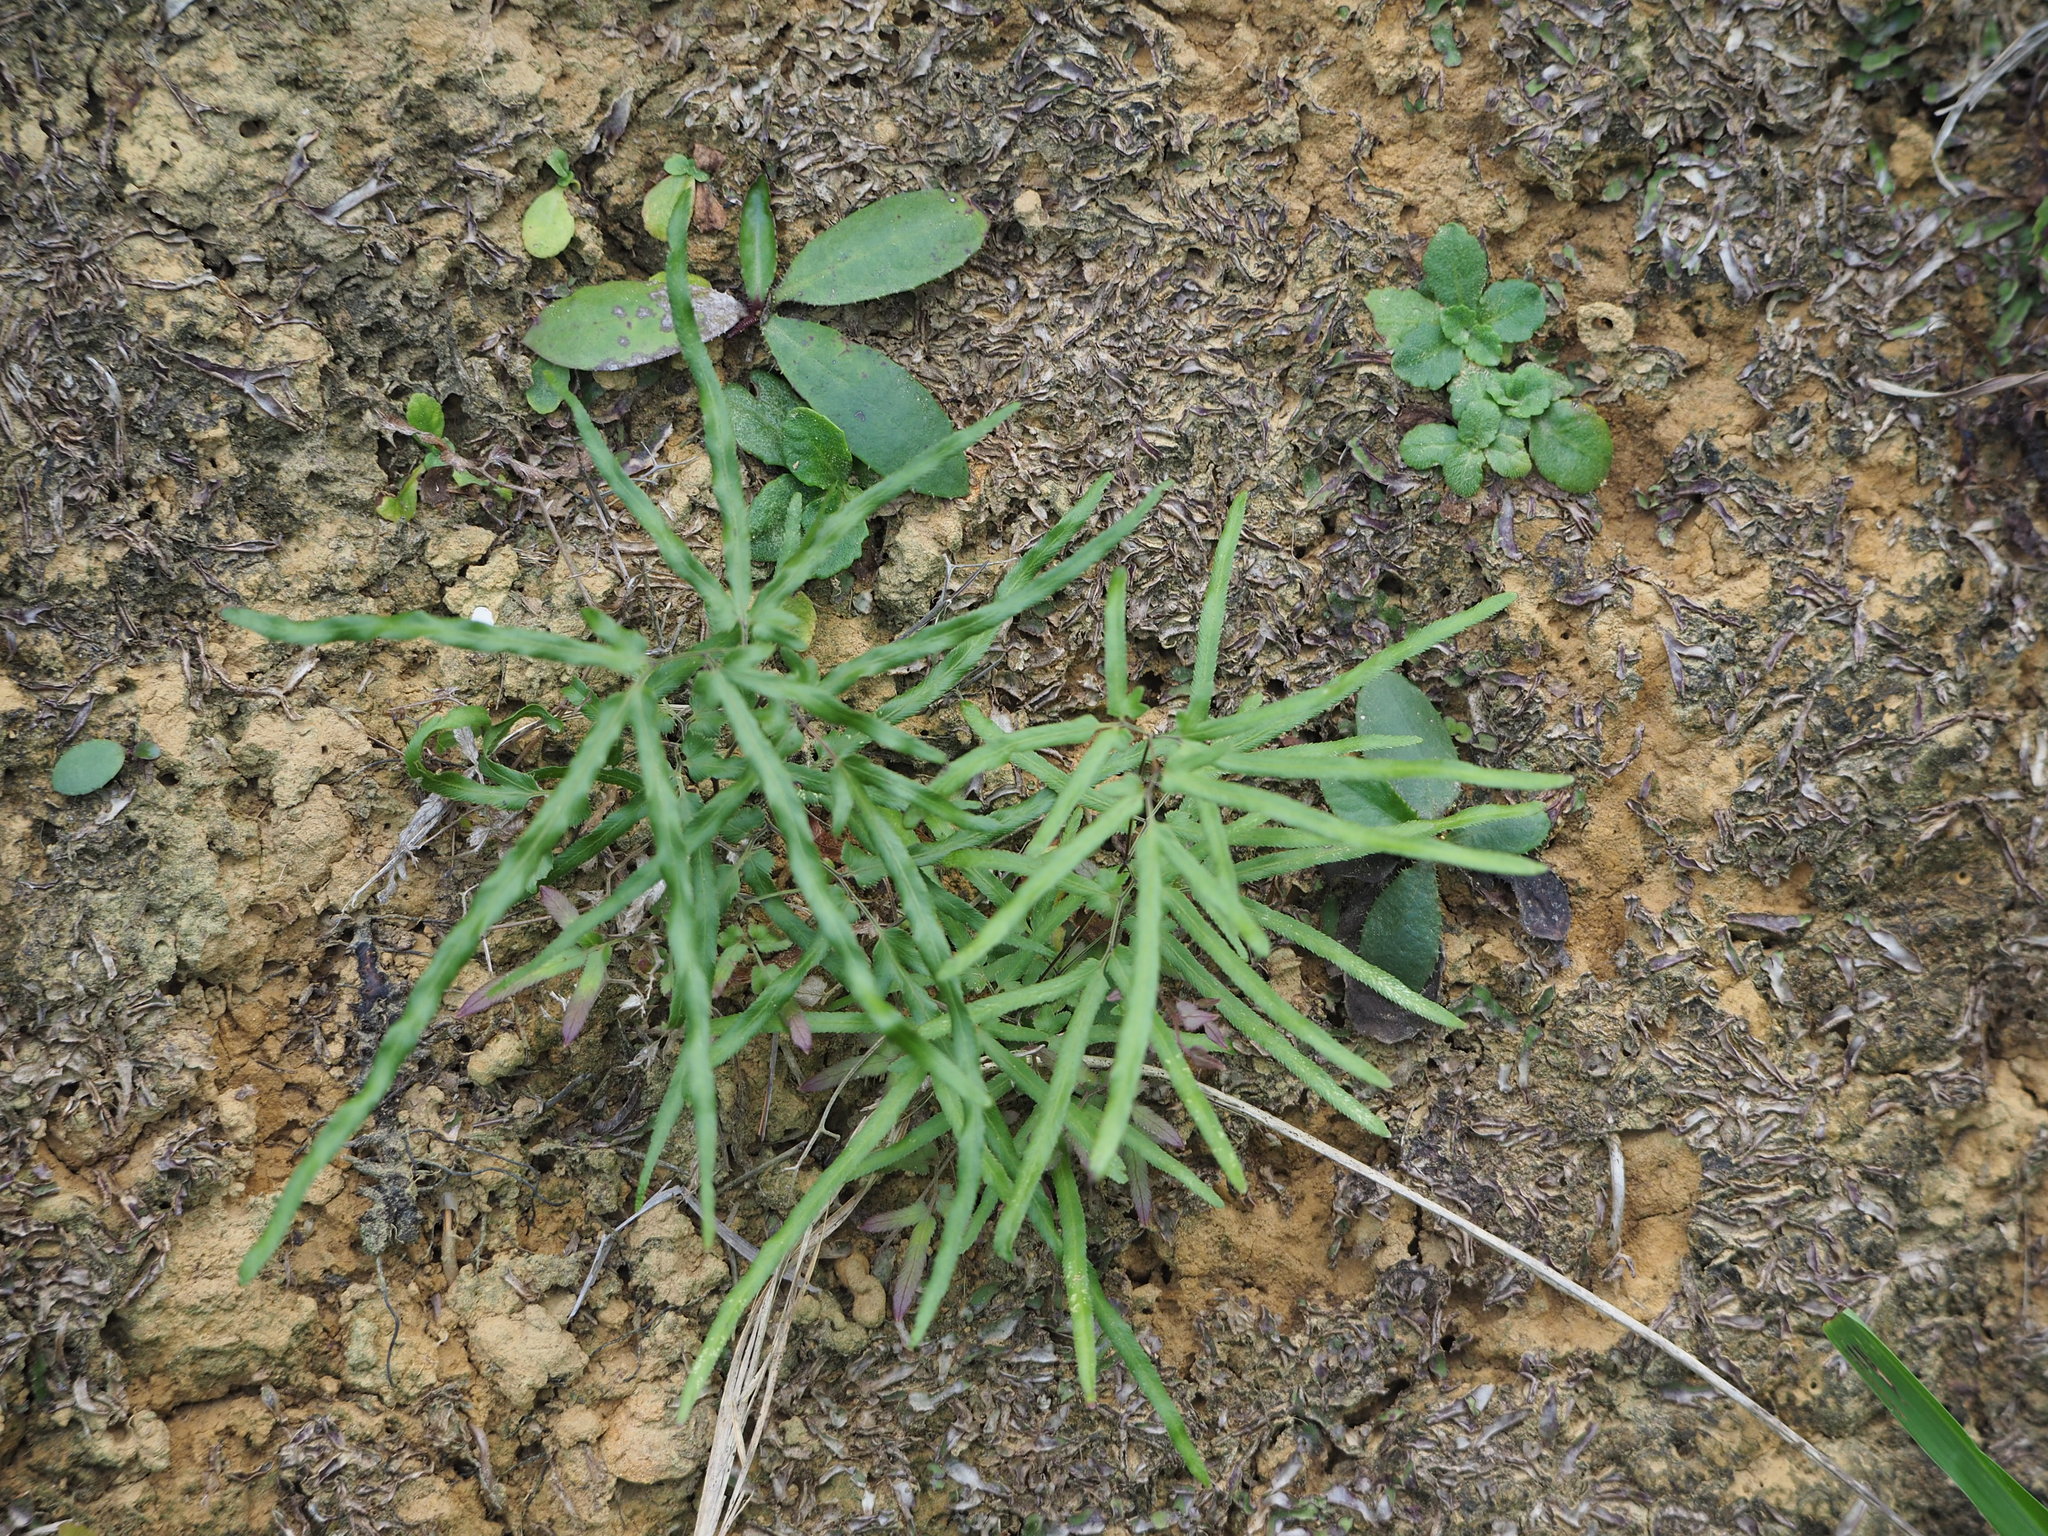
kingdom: Plantae
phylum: Tracheophyta
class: Polypodiopsida
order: Schizaeales
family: Lygodiaceae
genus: Lygodium
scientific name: Lygodium japonicum
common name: Japanese climbing fern
